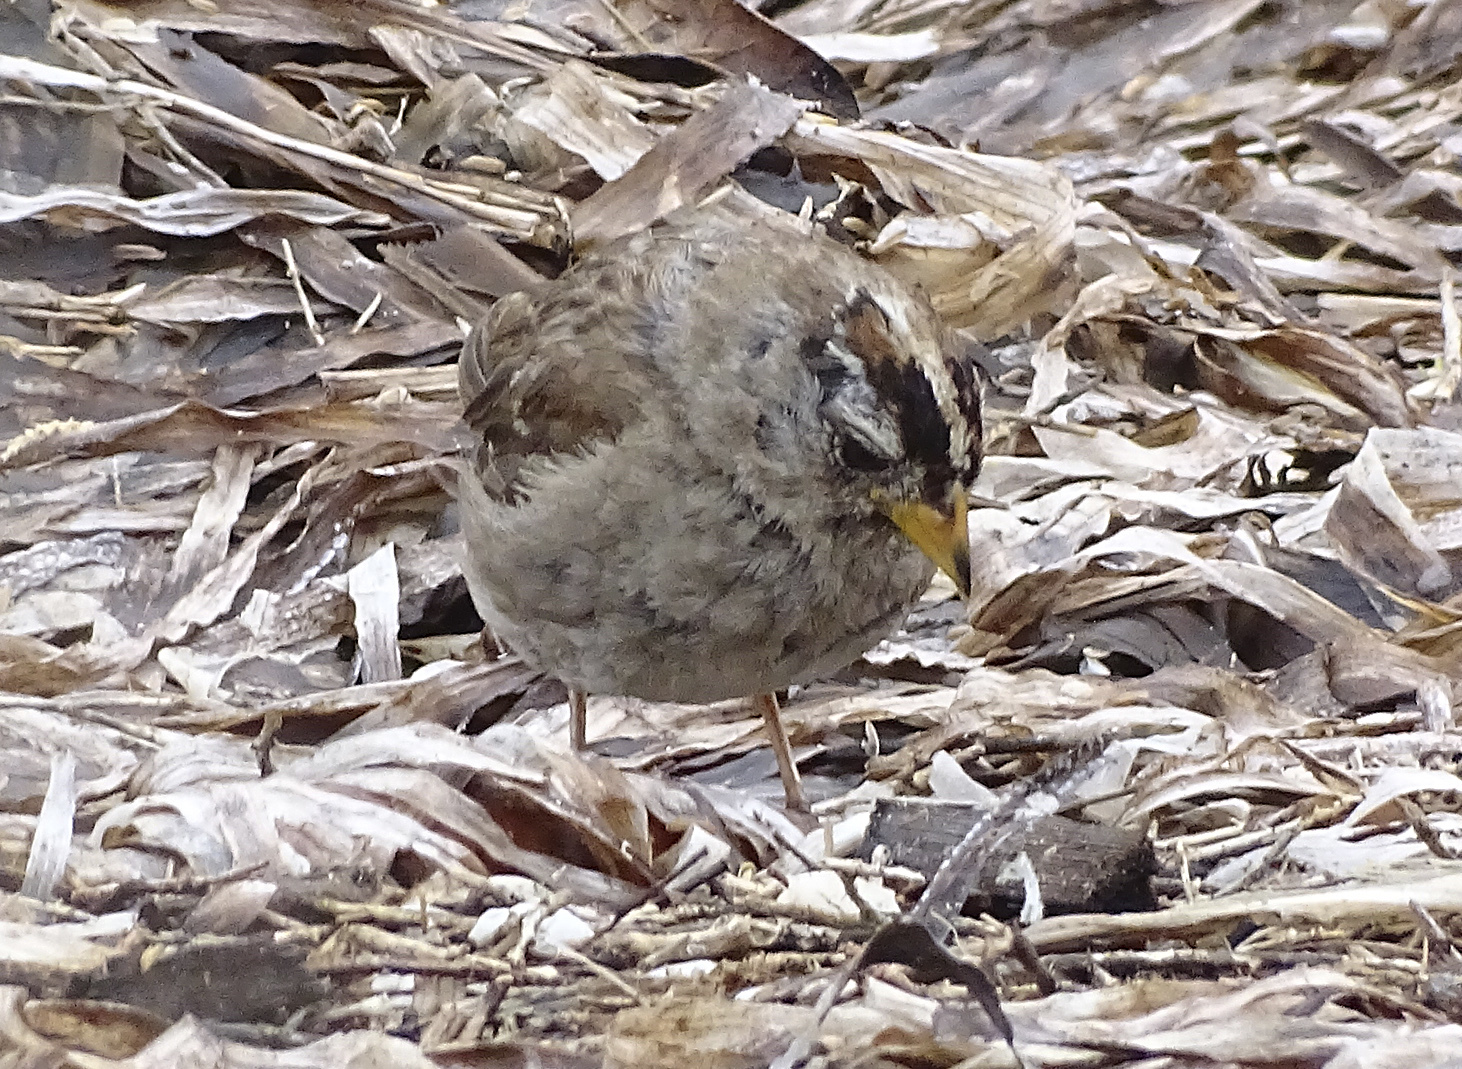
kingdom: Animalia
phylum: Chordata
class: Aves
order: Passeriformes
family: Passerellidae
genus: Zonotrichia
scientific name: Zonotrichia leucophrys
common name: White-crowned sparrow
